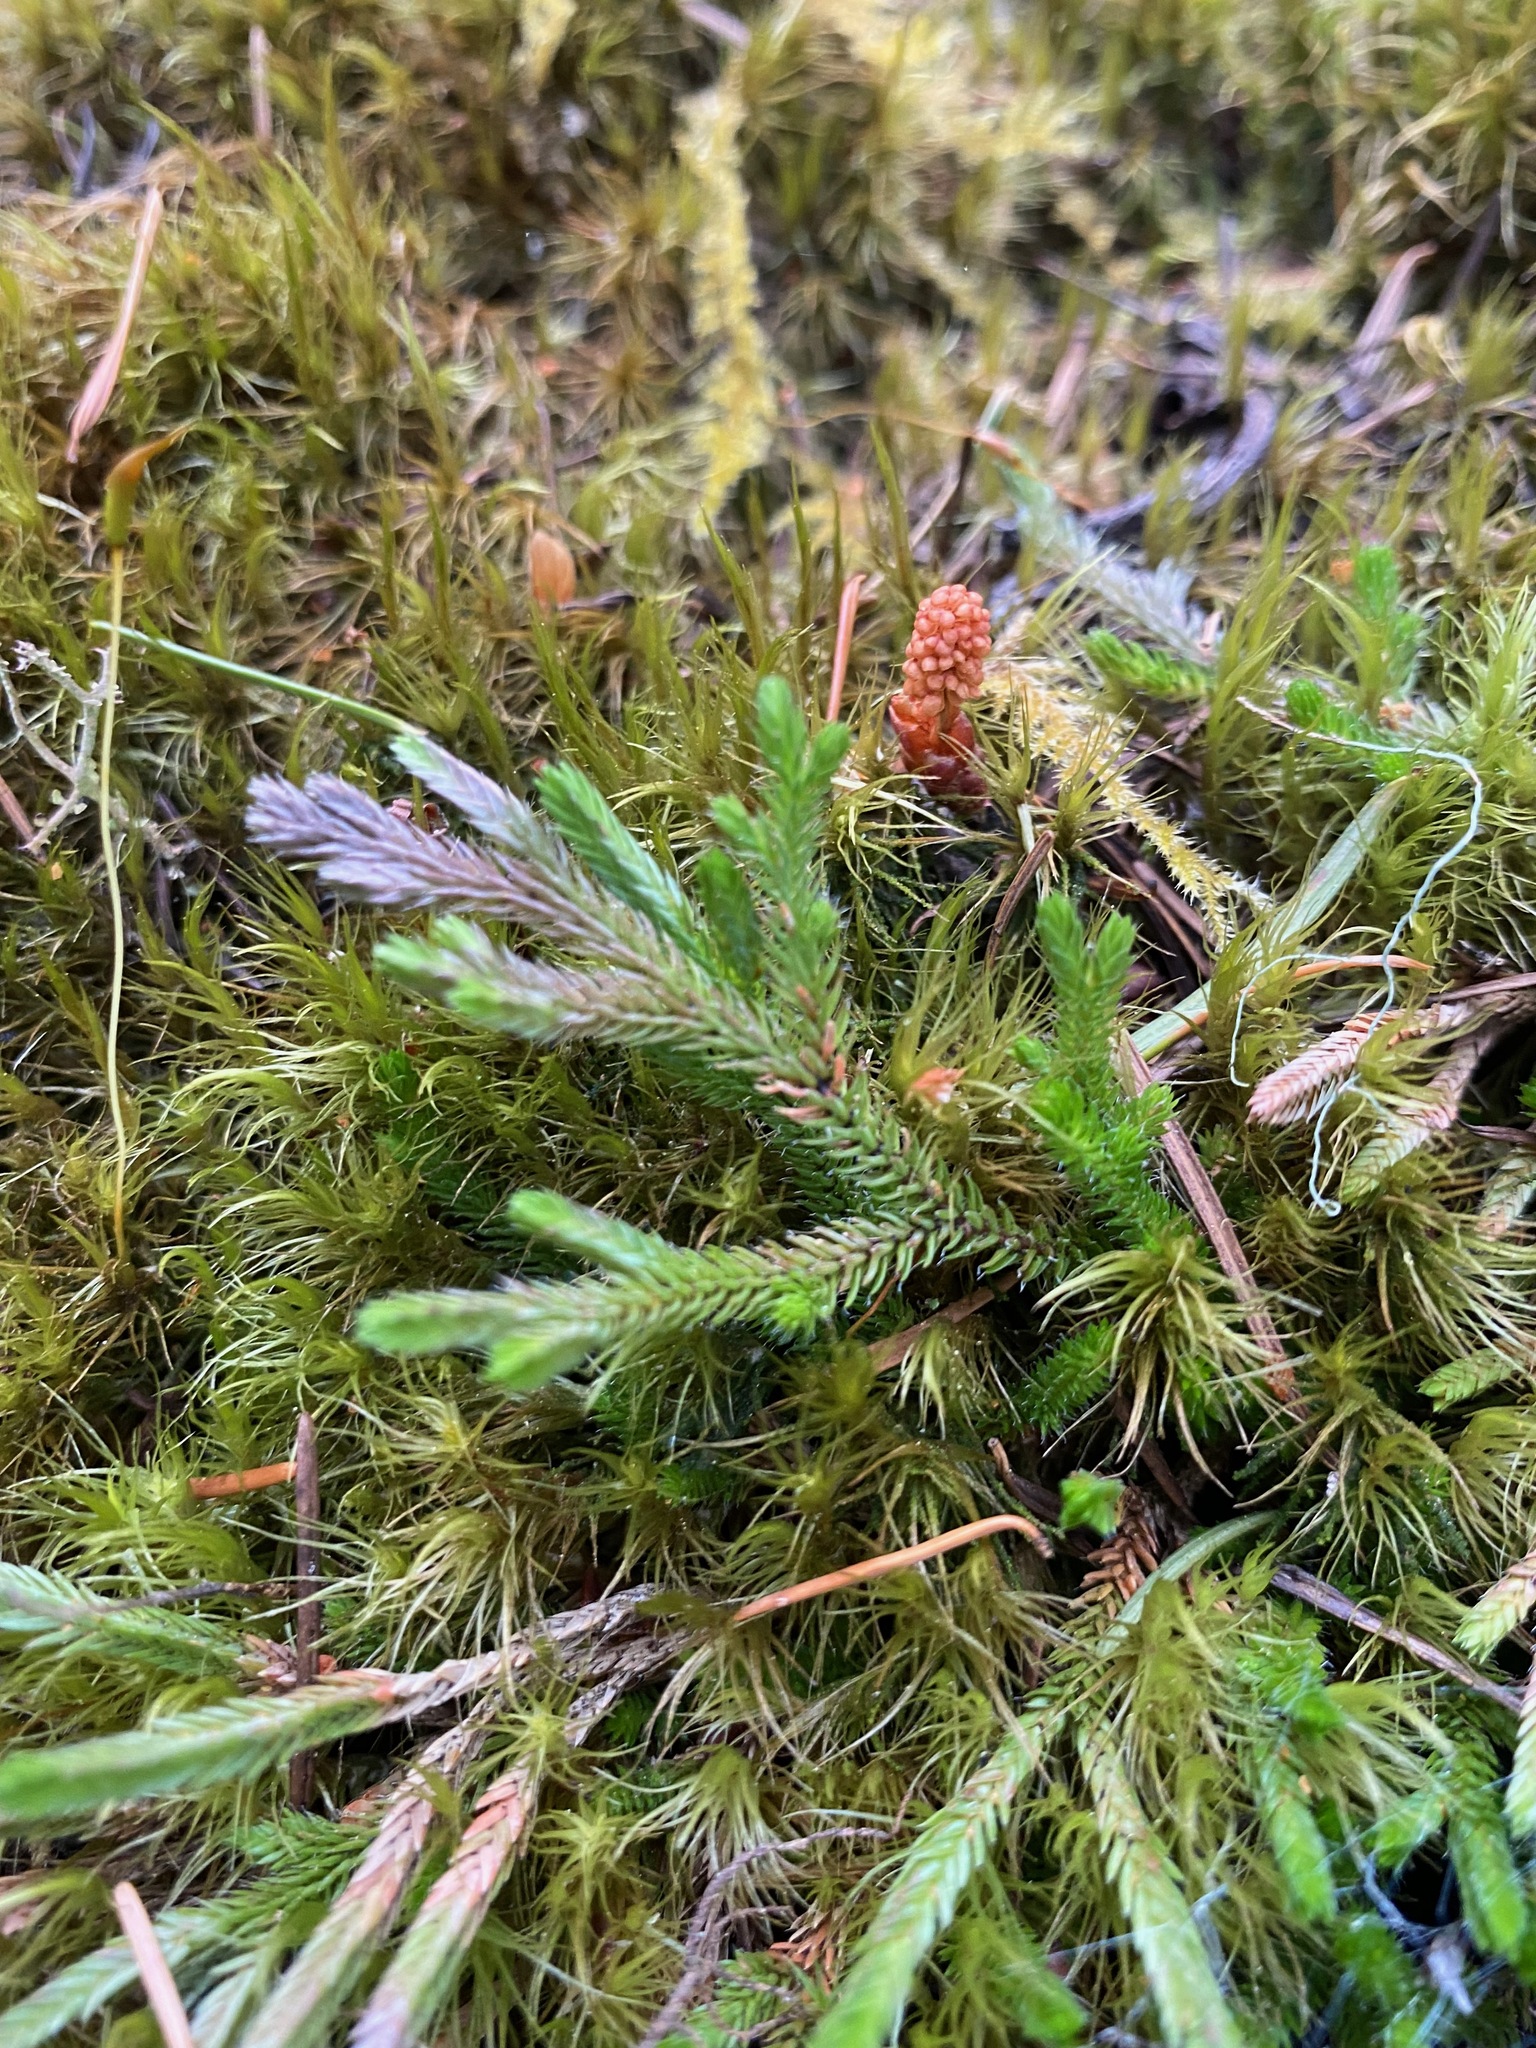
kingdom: Plantae
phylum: Tracheophyta
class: Lycopodiopsida
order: Selaginellales
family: Selaginellaceae
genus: Selaginella
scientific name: Selaginella wallacei
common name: Wallace's selaginella
